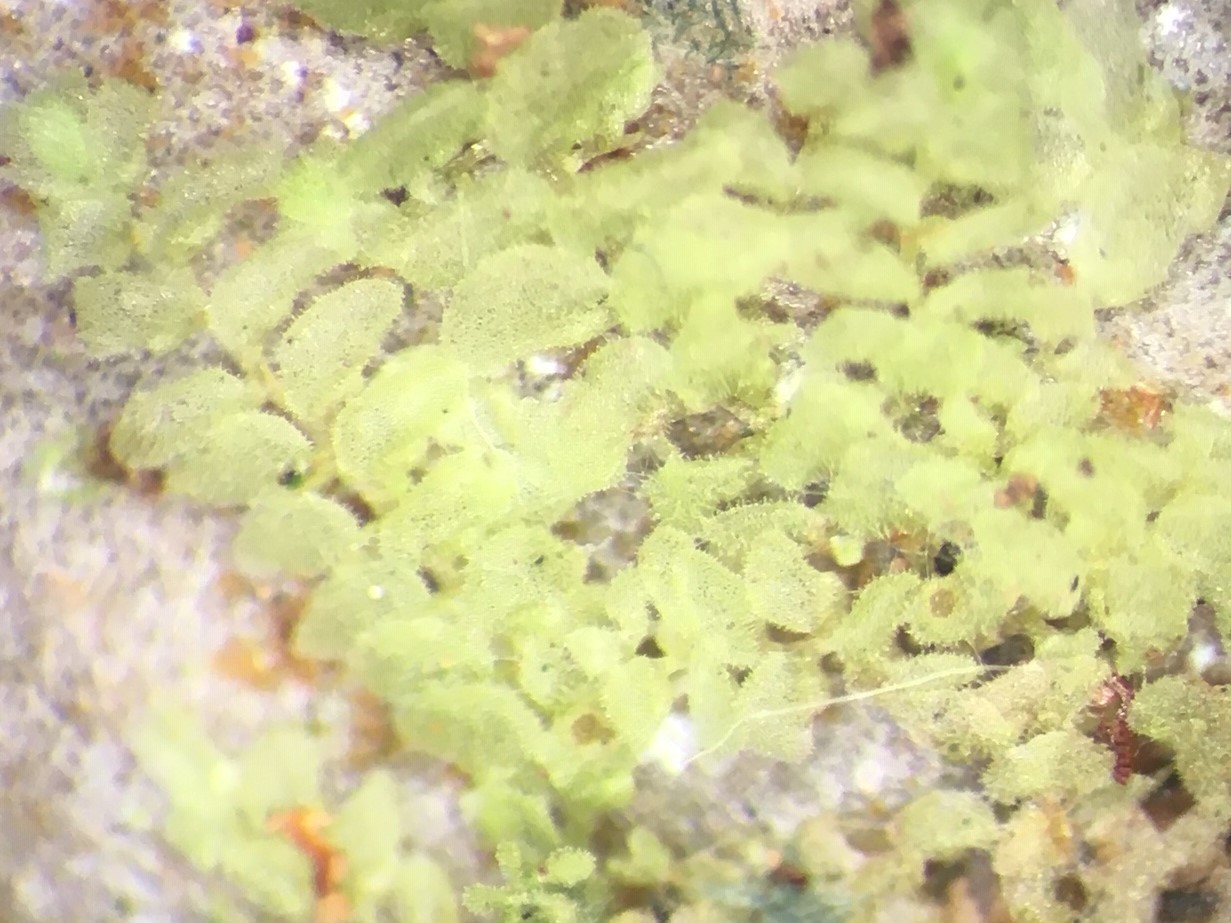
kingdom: Plantae
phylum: Marchantiophyta
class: Jungermanniopsida
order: Porellales
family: Lejeuneaceae
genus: Echinolejeunea
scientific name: Echinolejeunea papillata
